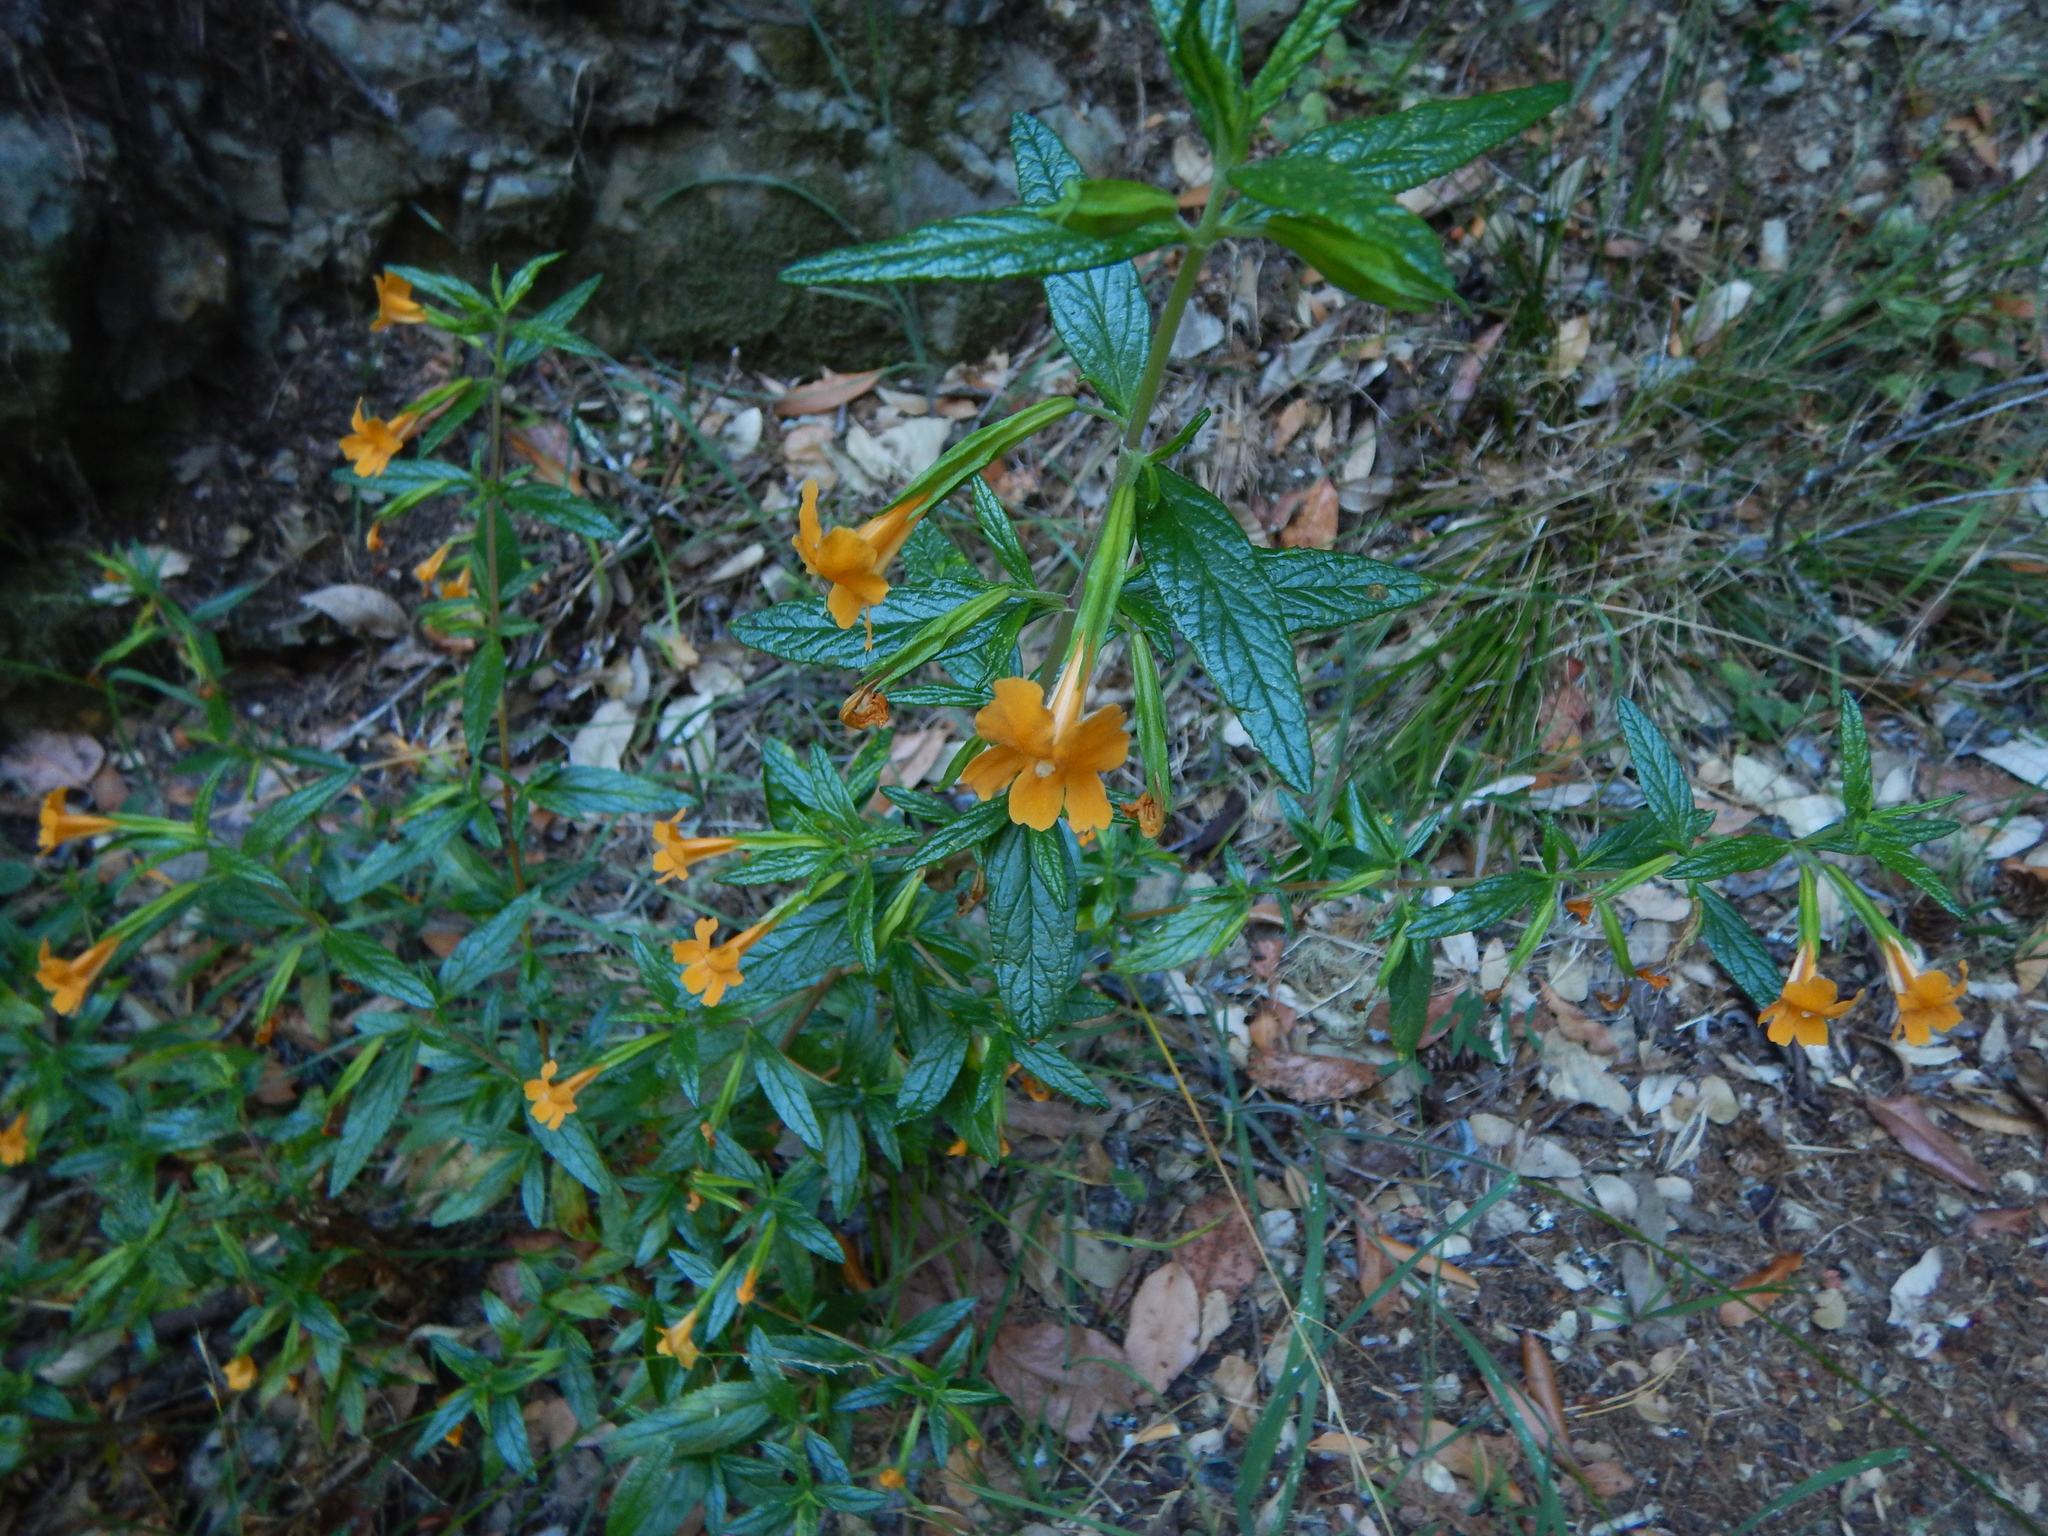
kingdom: Plantae
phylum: Tracheophyta
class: Magnoliopsida
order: Lamiales
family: Phrymaceae
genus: Diplacus
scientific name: Diplacus aurantiacus
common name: Bush monkey-flower
